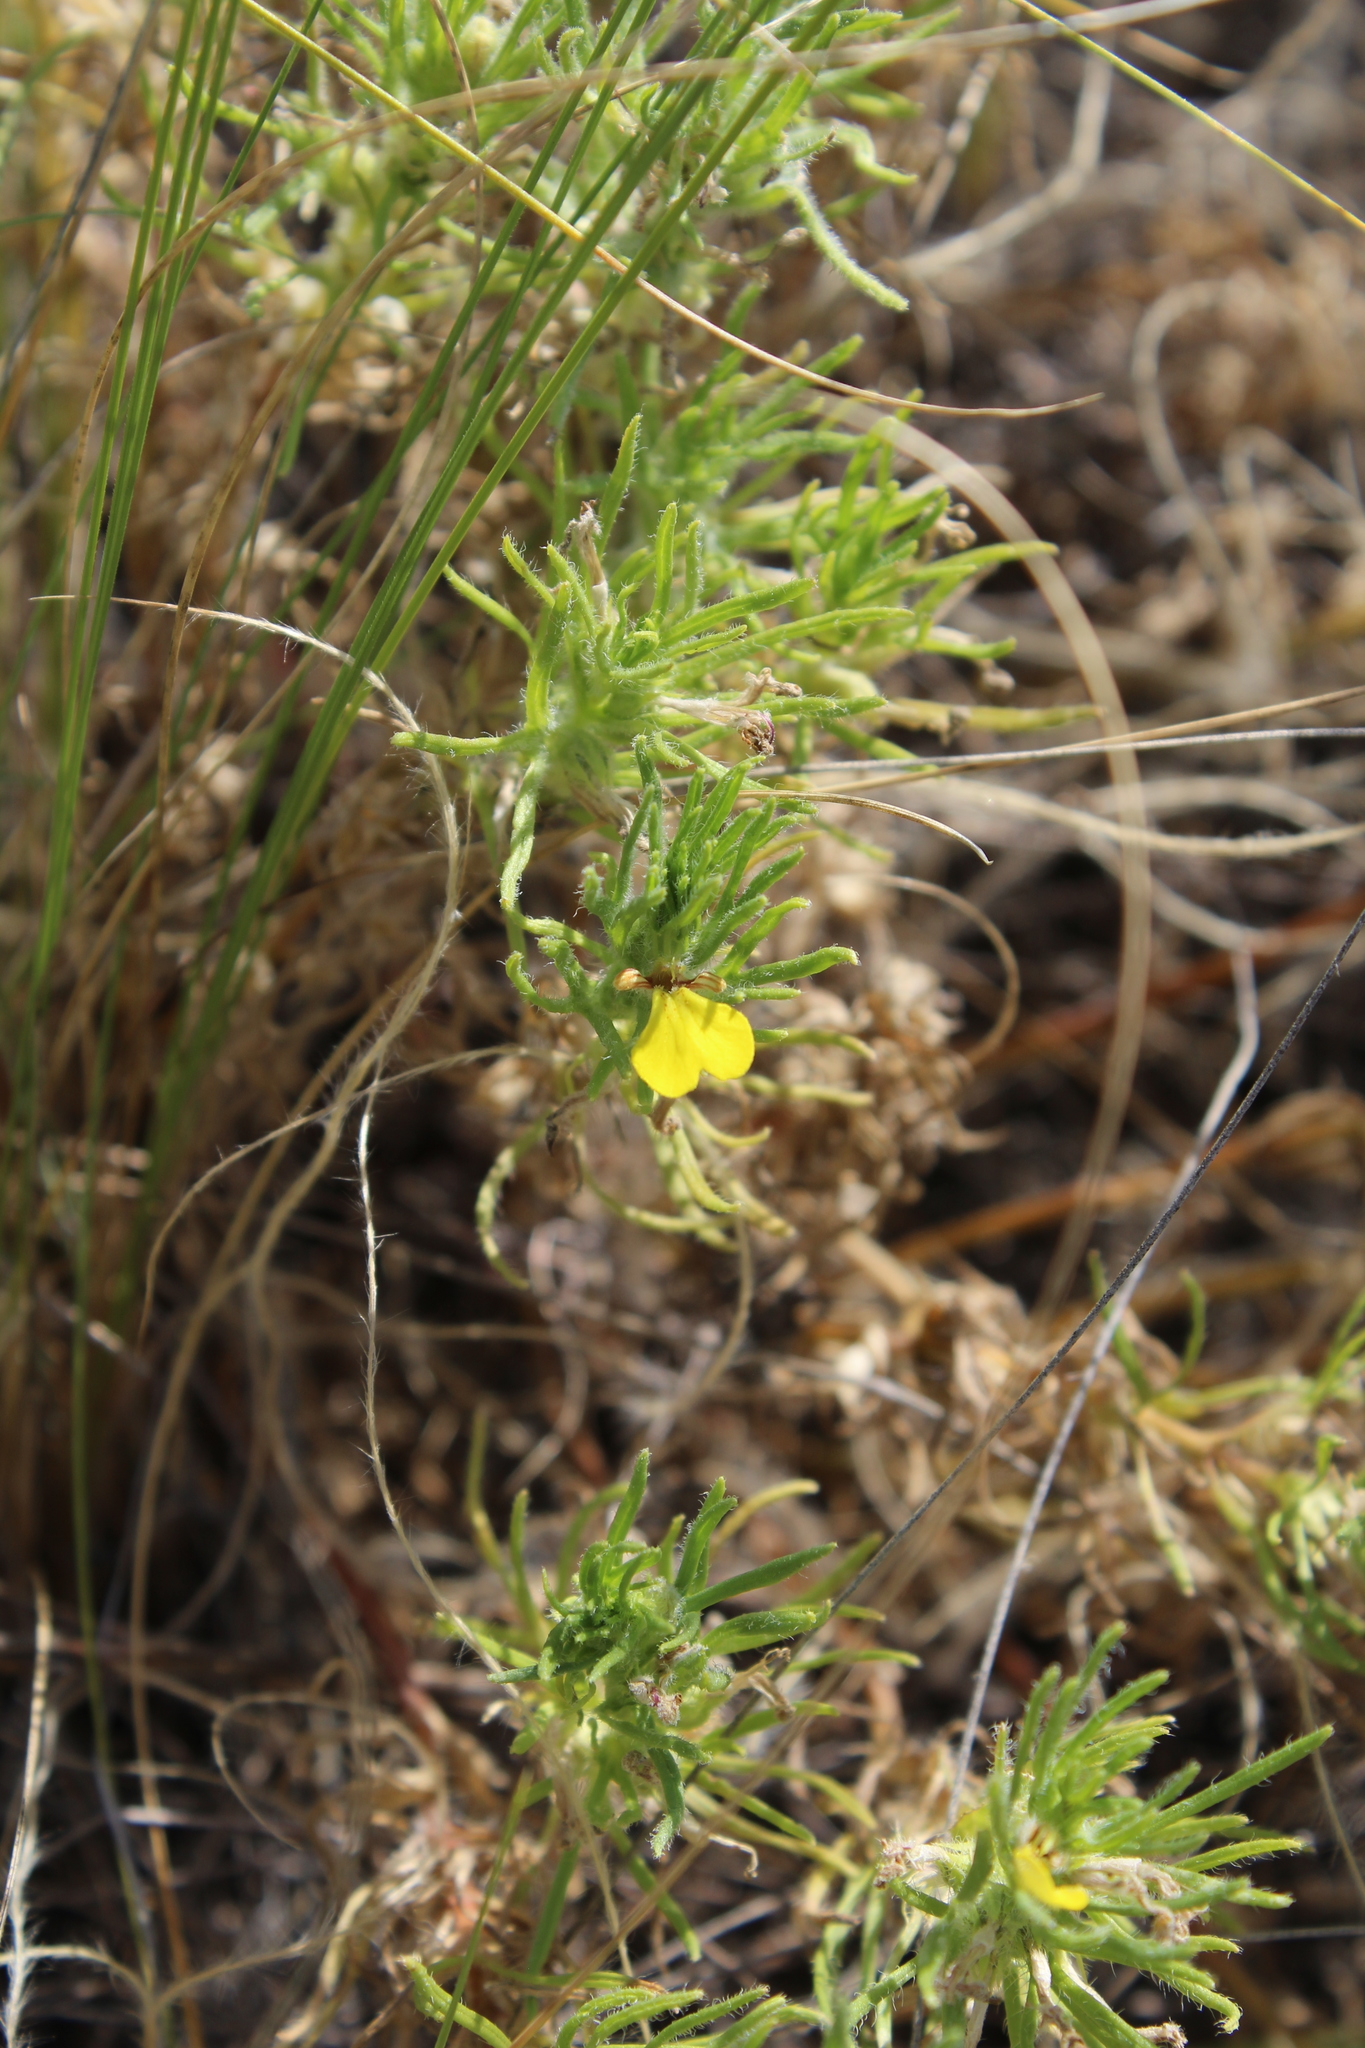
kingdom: Plantae
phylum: Tracheophyta
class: Magnoliopsida
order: Lamiales
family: Lamiaceae
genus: Ajuga
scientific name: Ajuga chamaepitys
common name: Ground-pine
